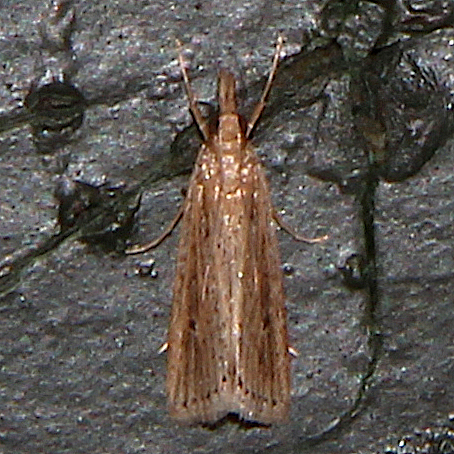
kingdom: Animalia
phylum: Arthropoda
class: Insecta
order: Lepidoptera
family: Crambidae
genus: Eudonia
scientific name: Eudonia sabulosella
